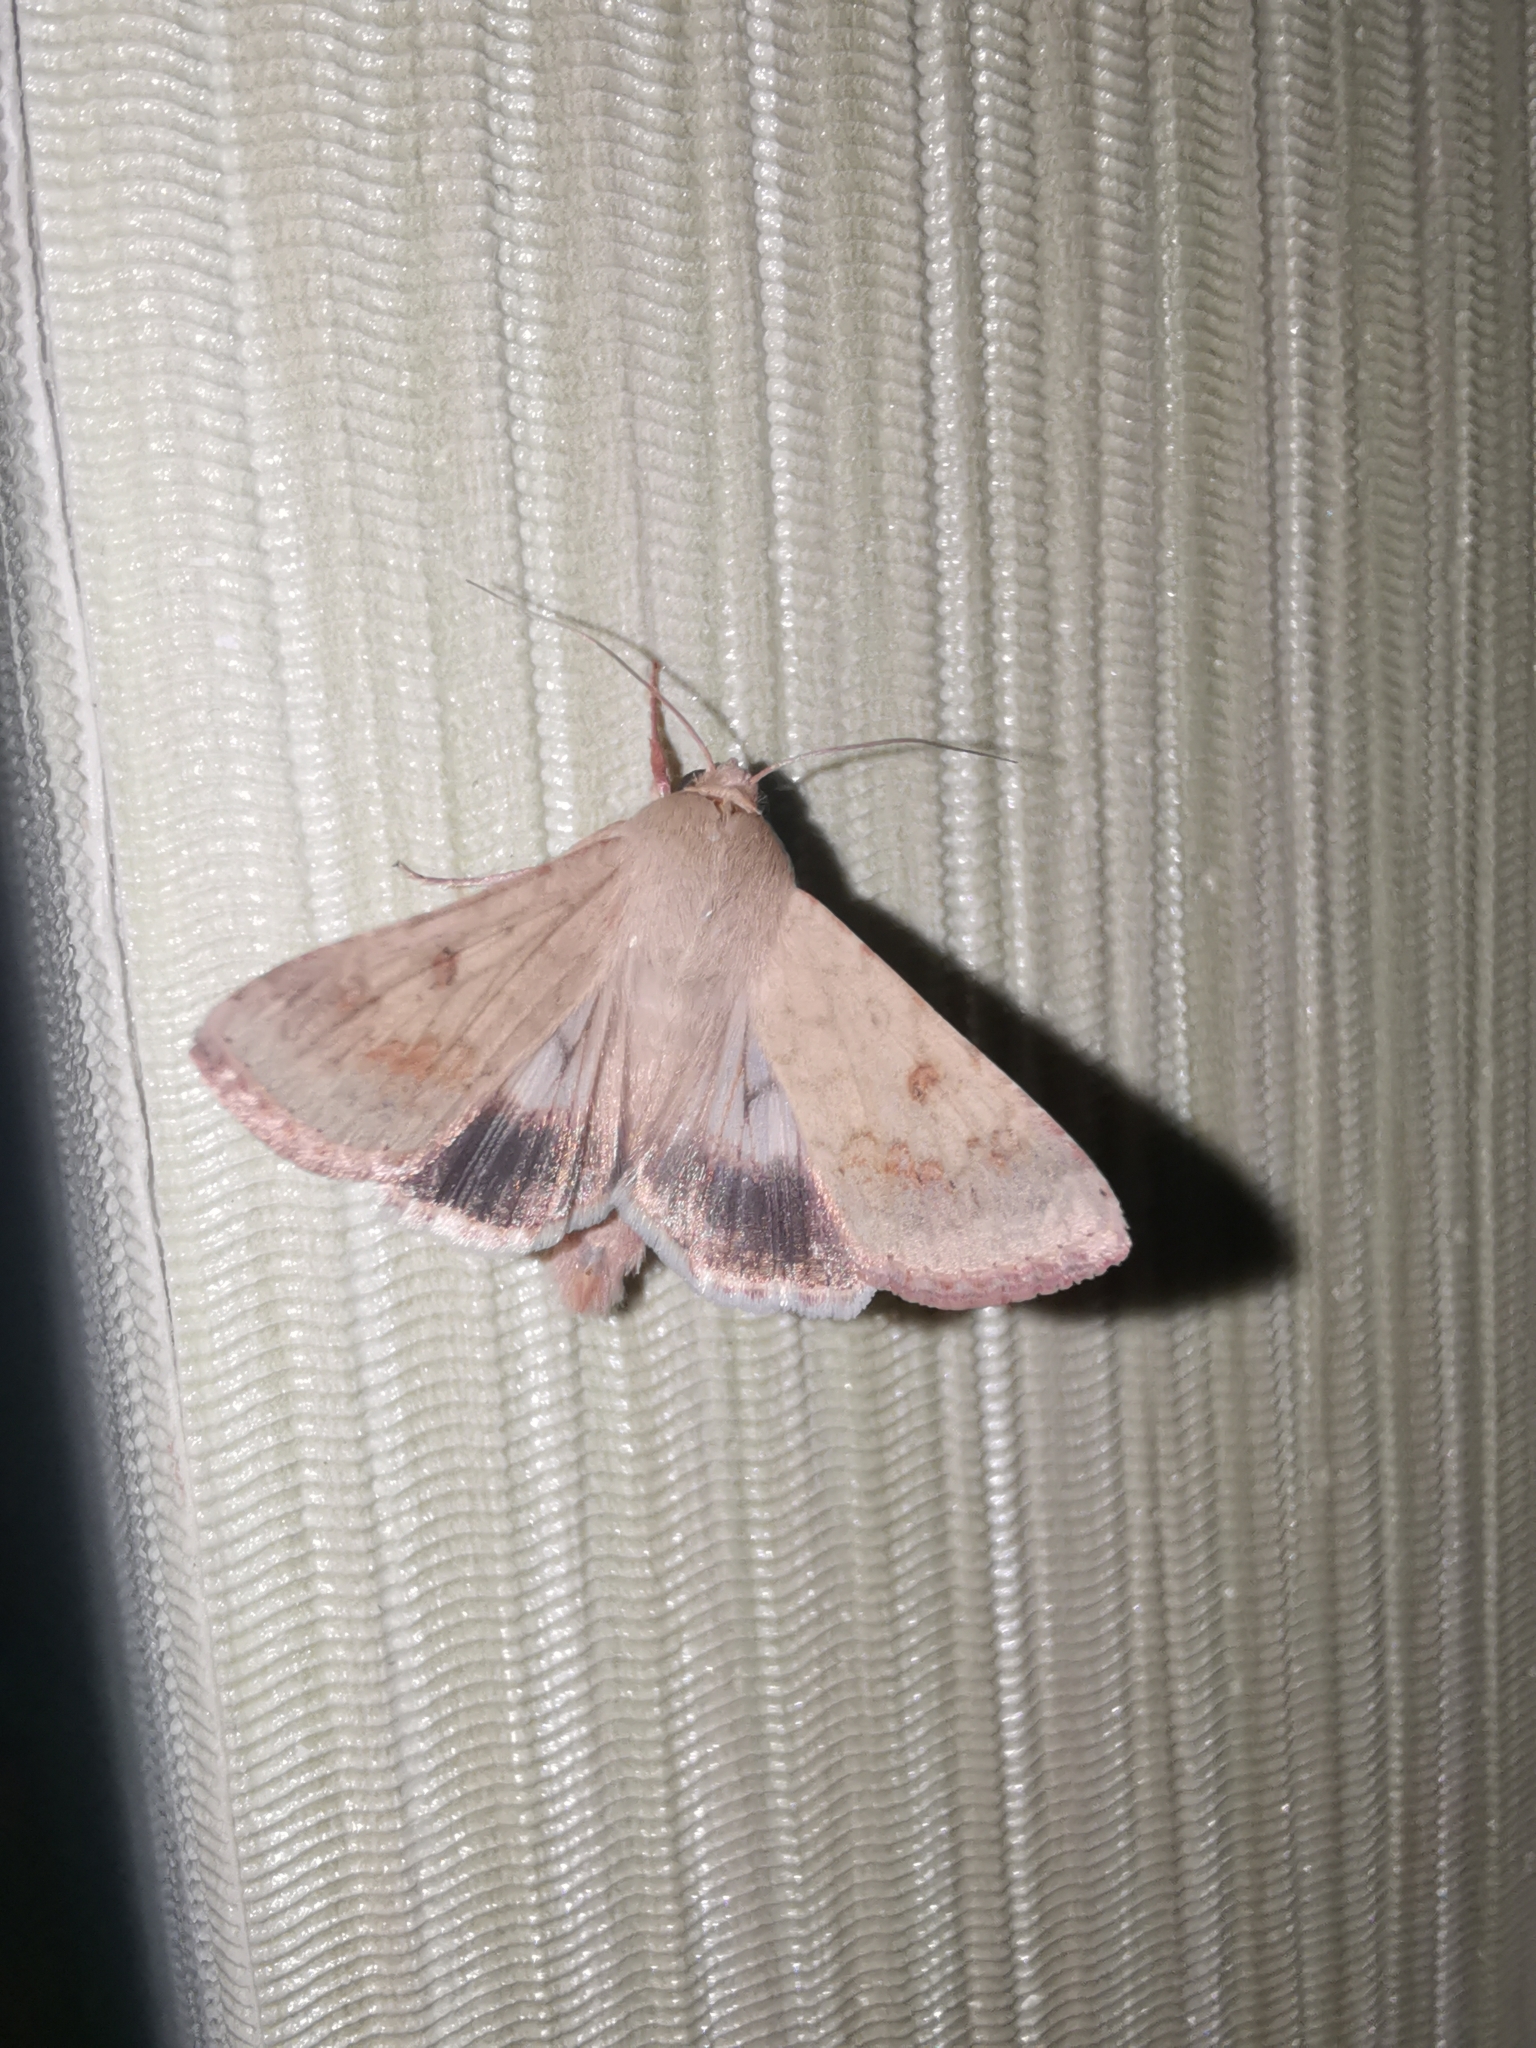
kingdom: Animalia
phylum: Arthropoda
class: Insecta
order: Lepidoptera
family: Noctuidae
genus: Helicoverpa
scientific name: Helicoverpa armigera
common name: Cotton bollworm
